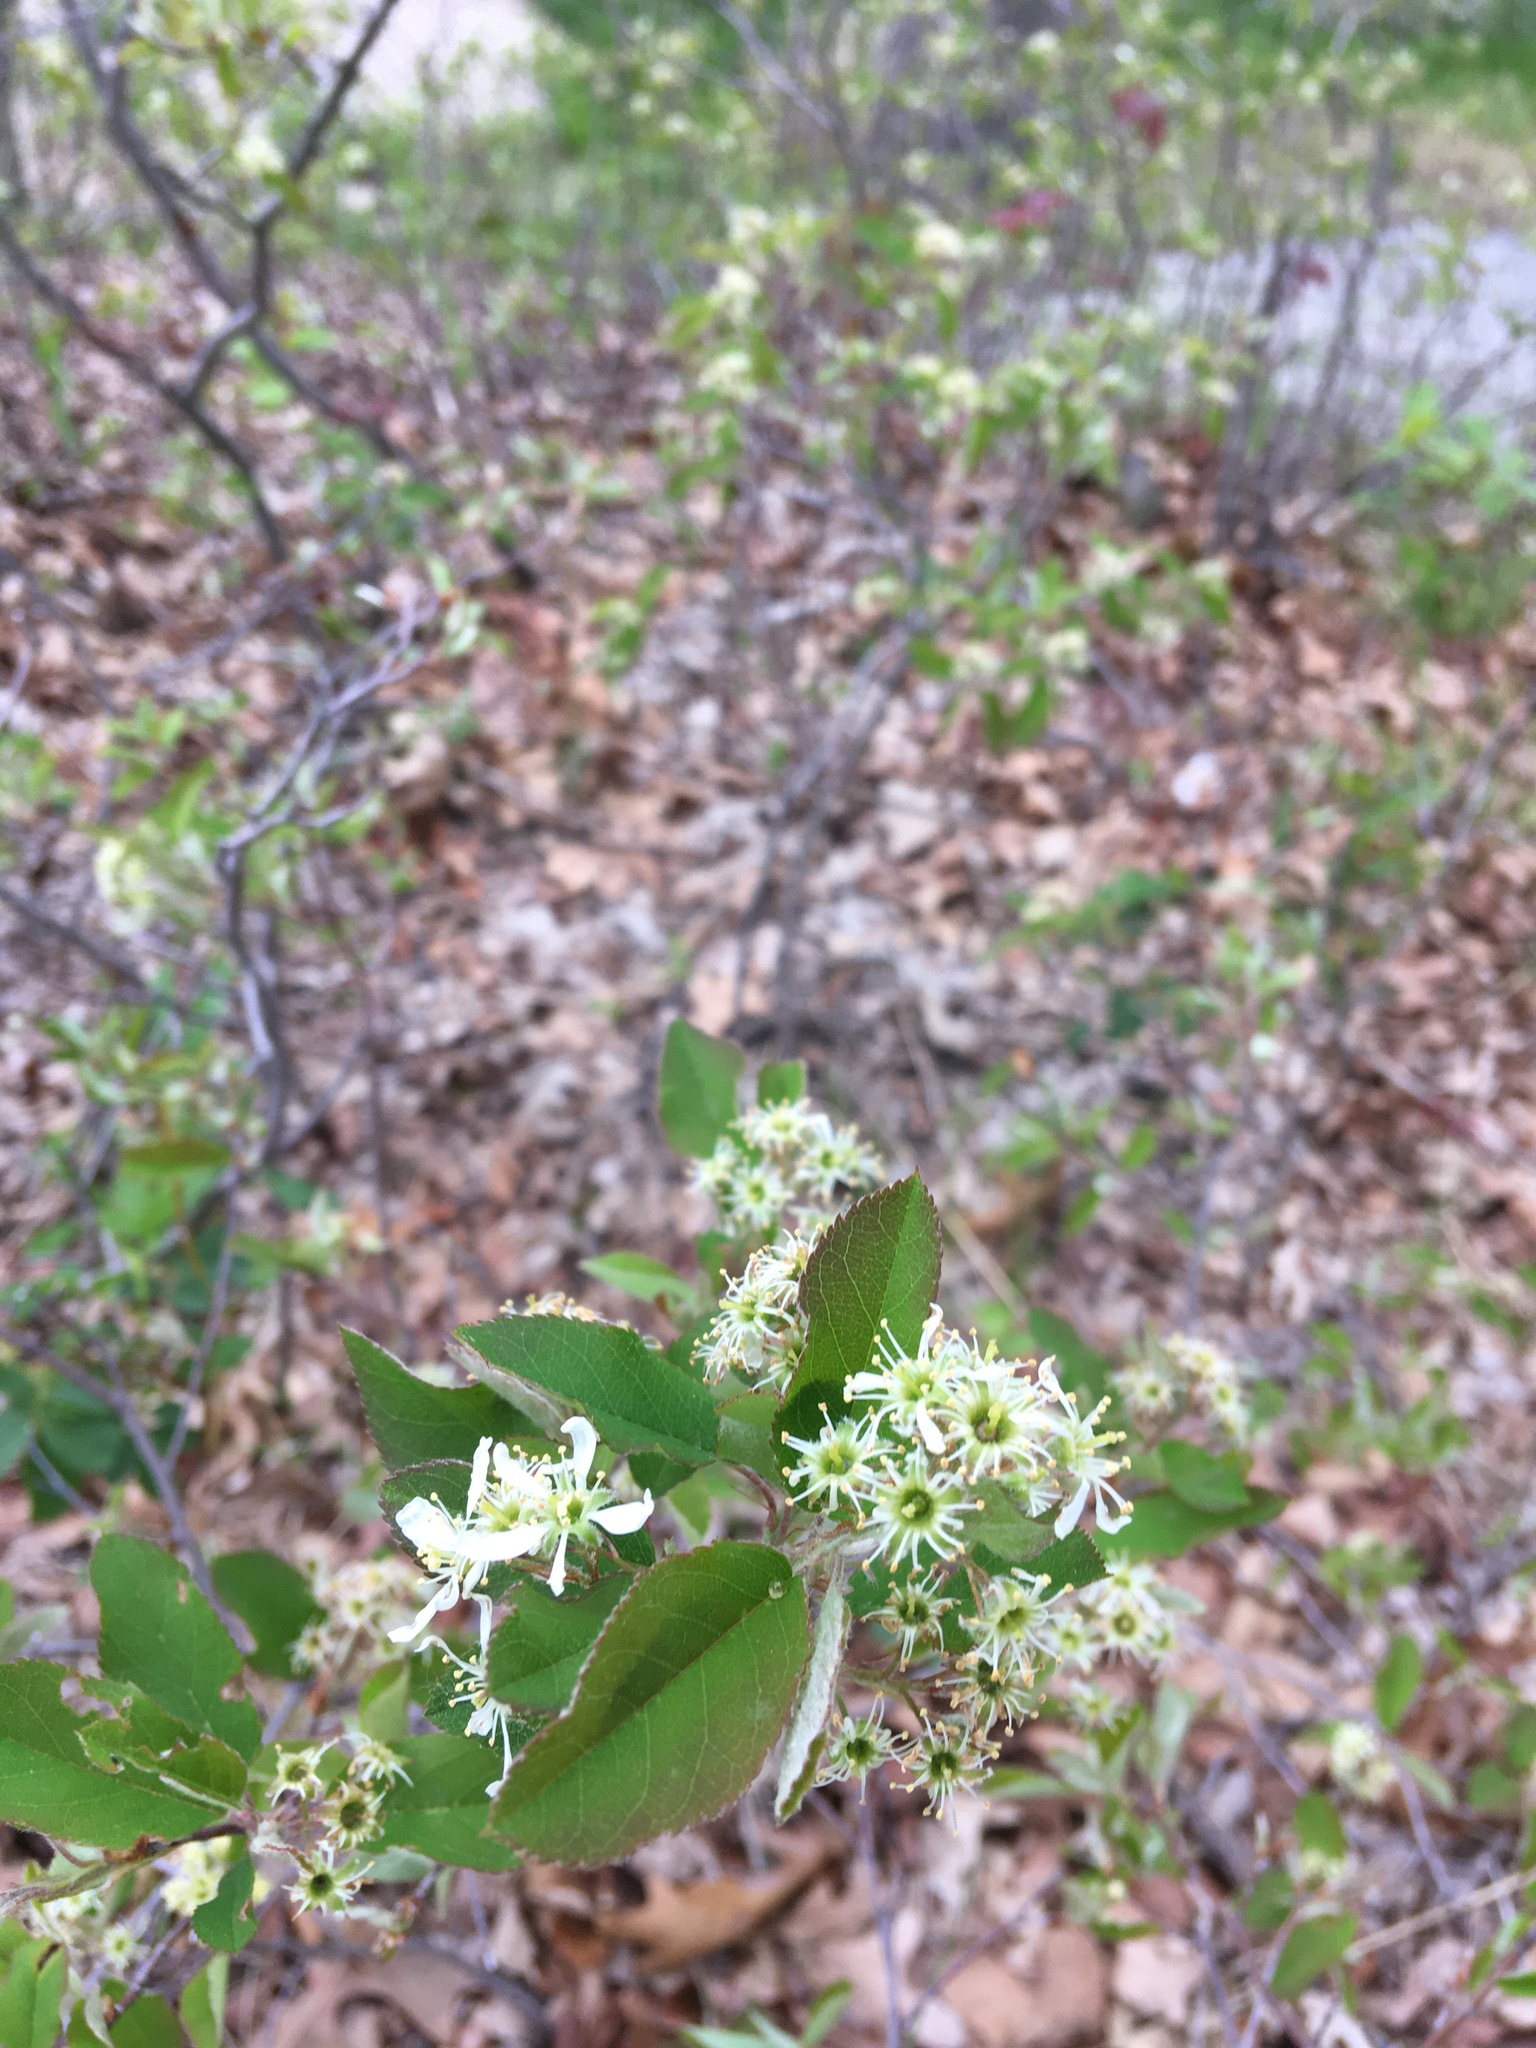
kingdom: Plantae
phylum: Tracheophyta
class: Magnoliopsida
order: Rosales
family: Rosaceae
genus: Amelanchier
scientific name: Amelanchier nantucketensis
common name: Nantucket shadbush
